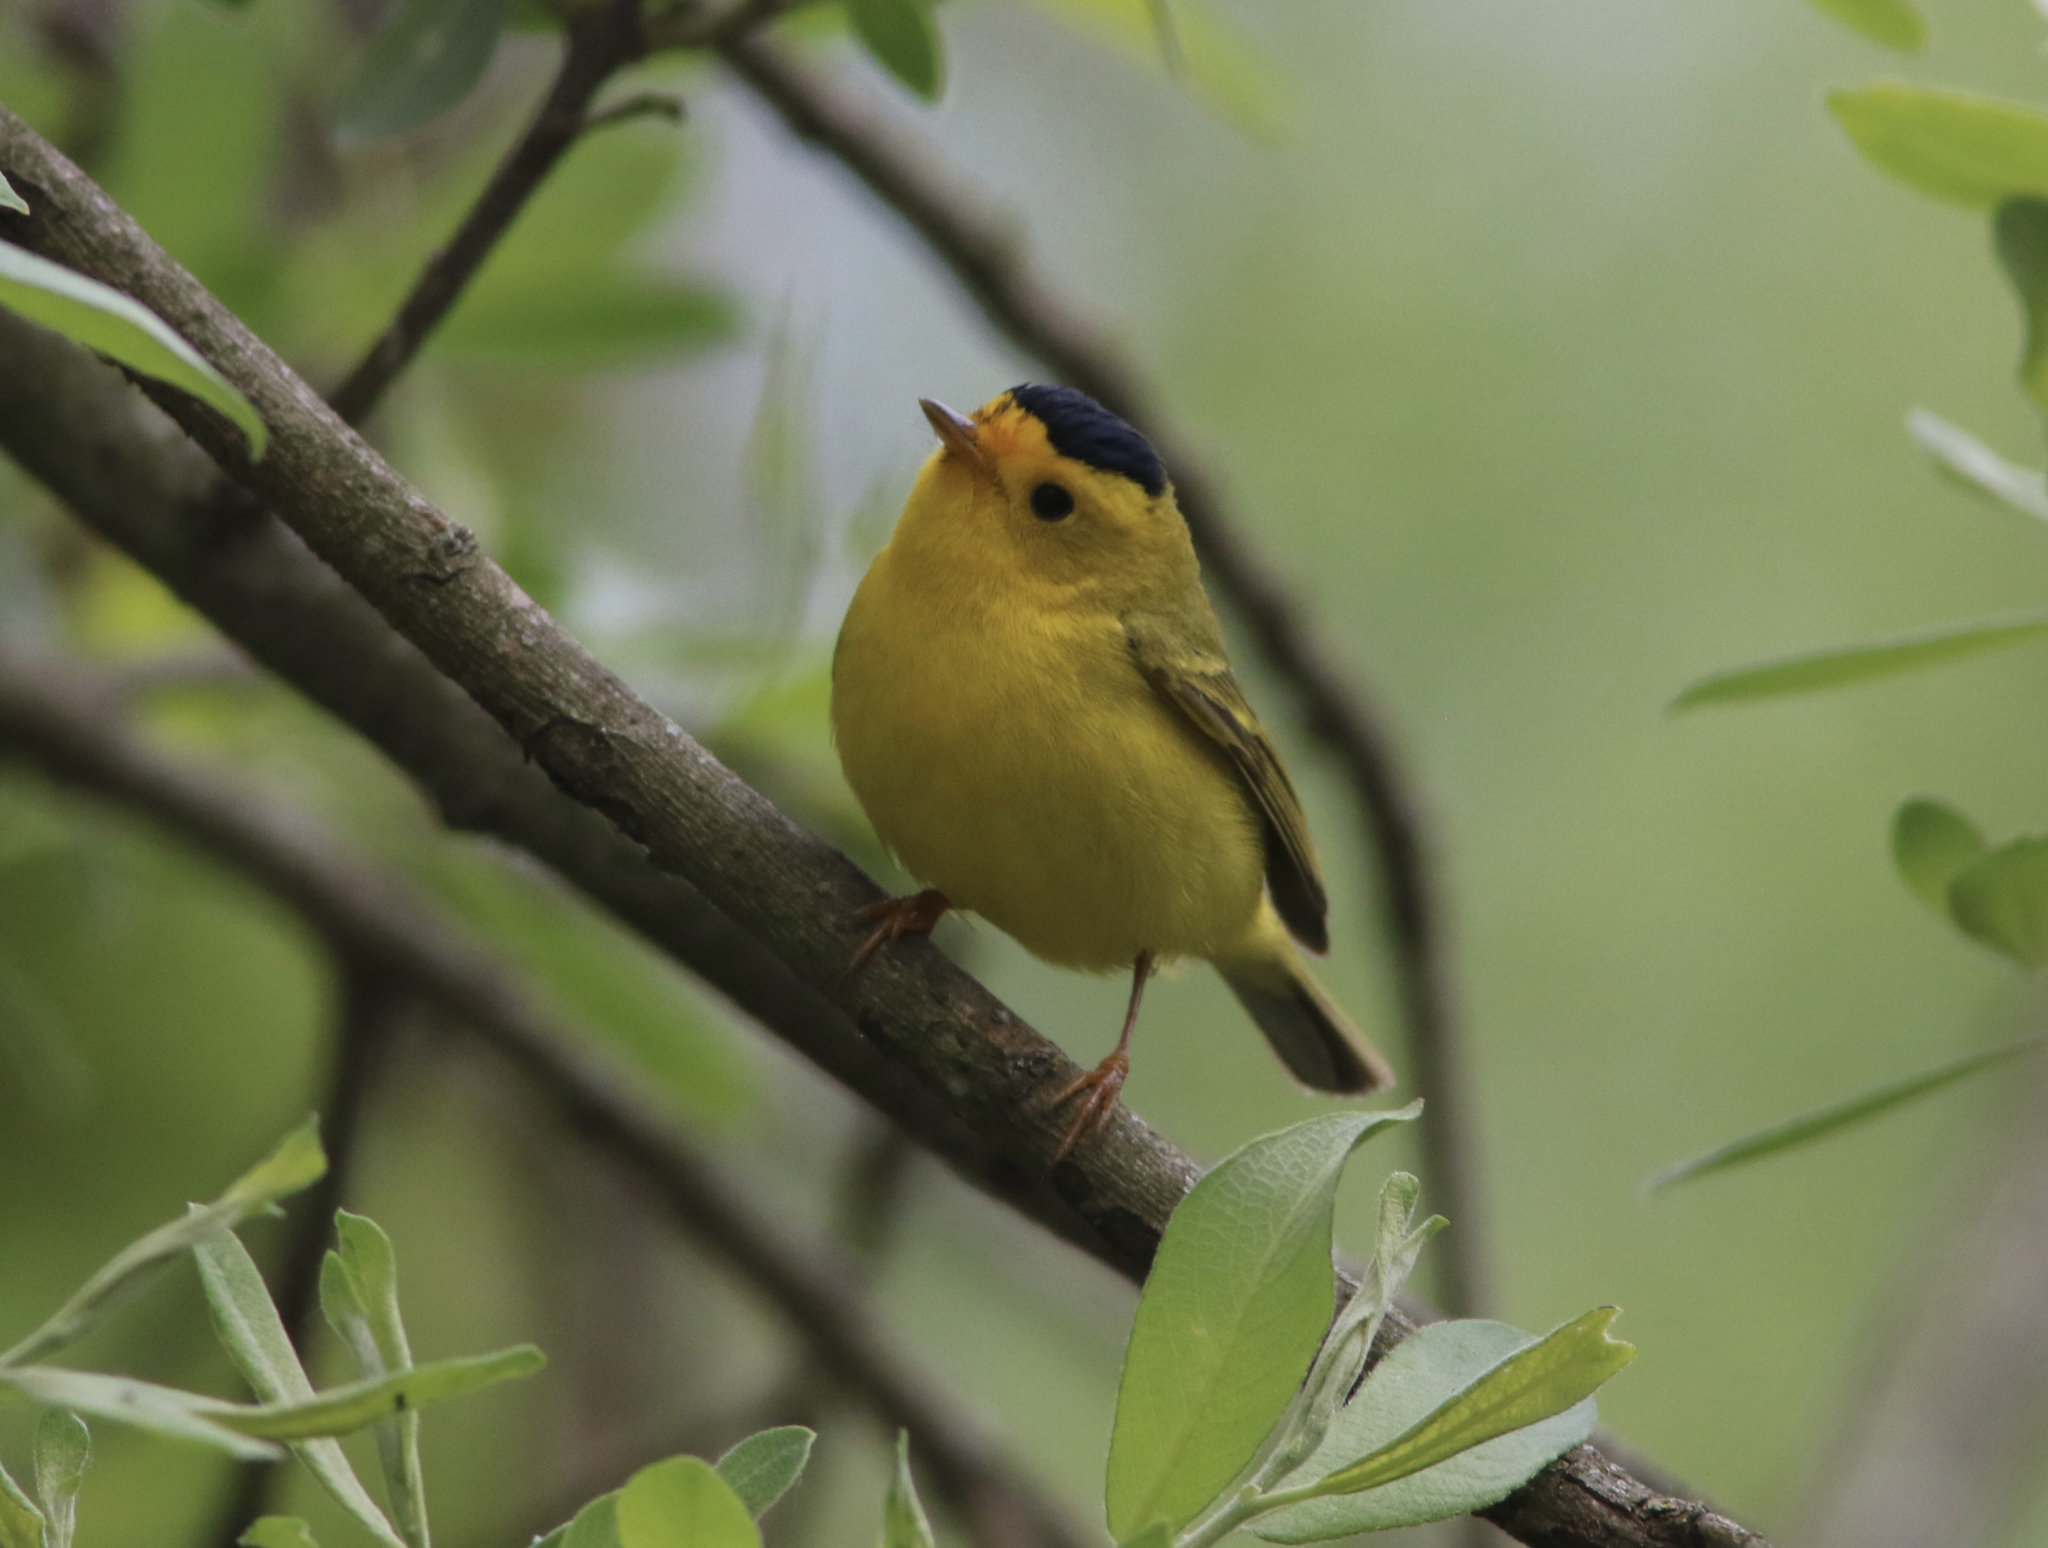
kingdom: Animalia
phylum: Chordata
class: Aves
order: Passeriformes
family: Parulidae
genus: Cardellina
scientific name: Cardellina pusilla
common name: Wilson's warbler
